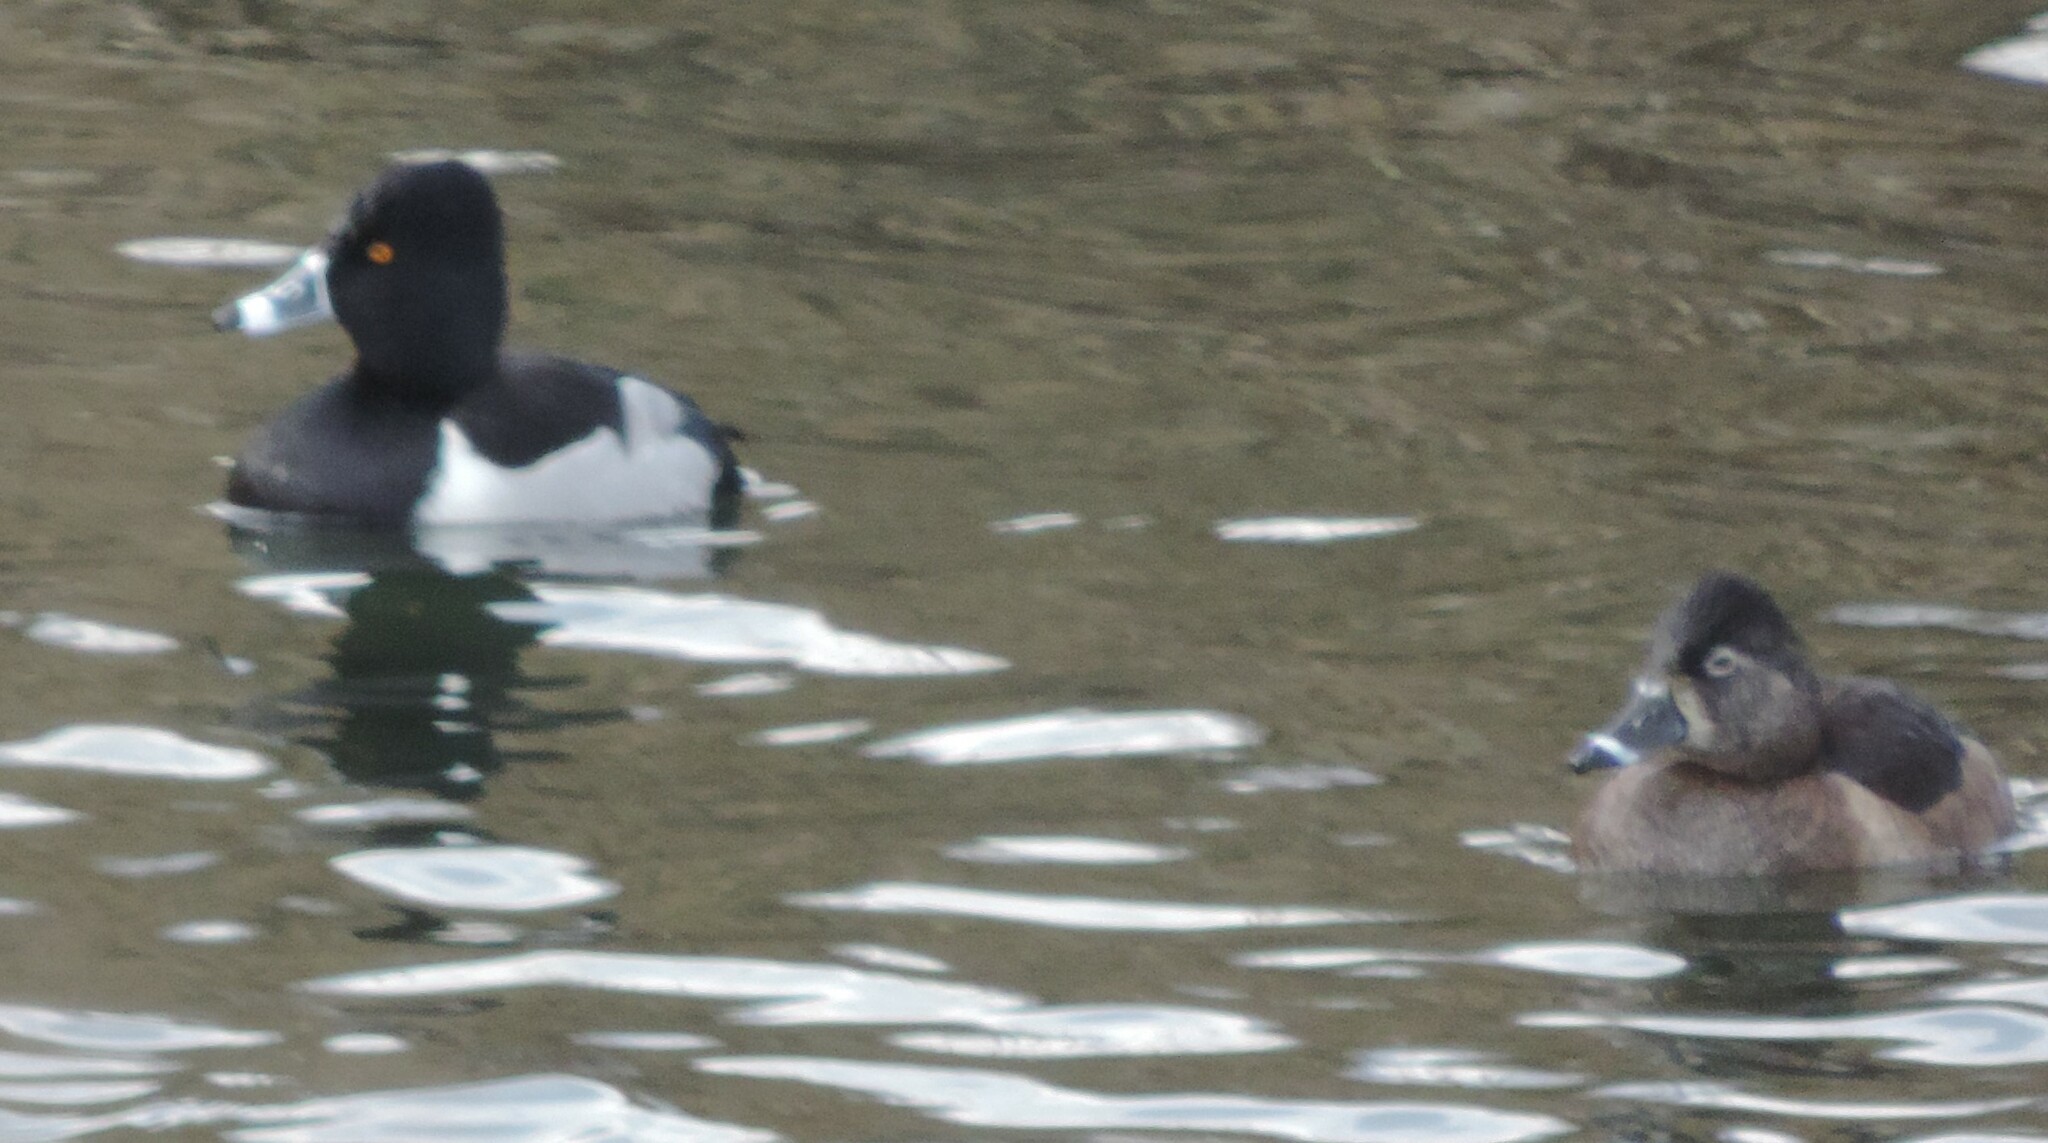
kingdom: Animalia
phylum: Chordata
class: Aves
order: Anseriformes
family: Anatidae
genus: Aythya
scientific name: Aythya collaris
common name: Ring-necked duck
